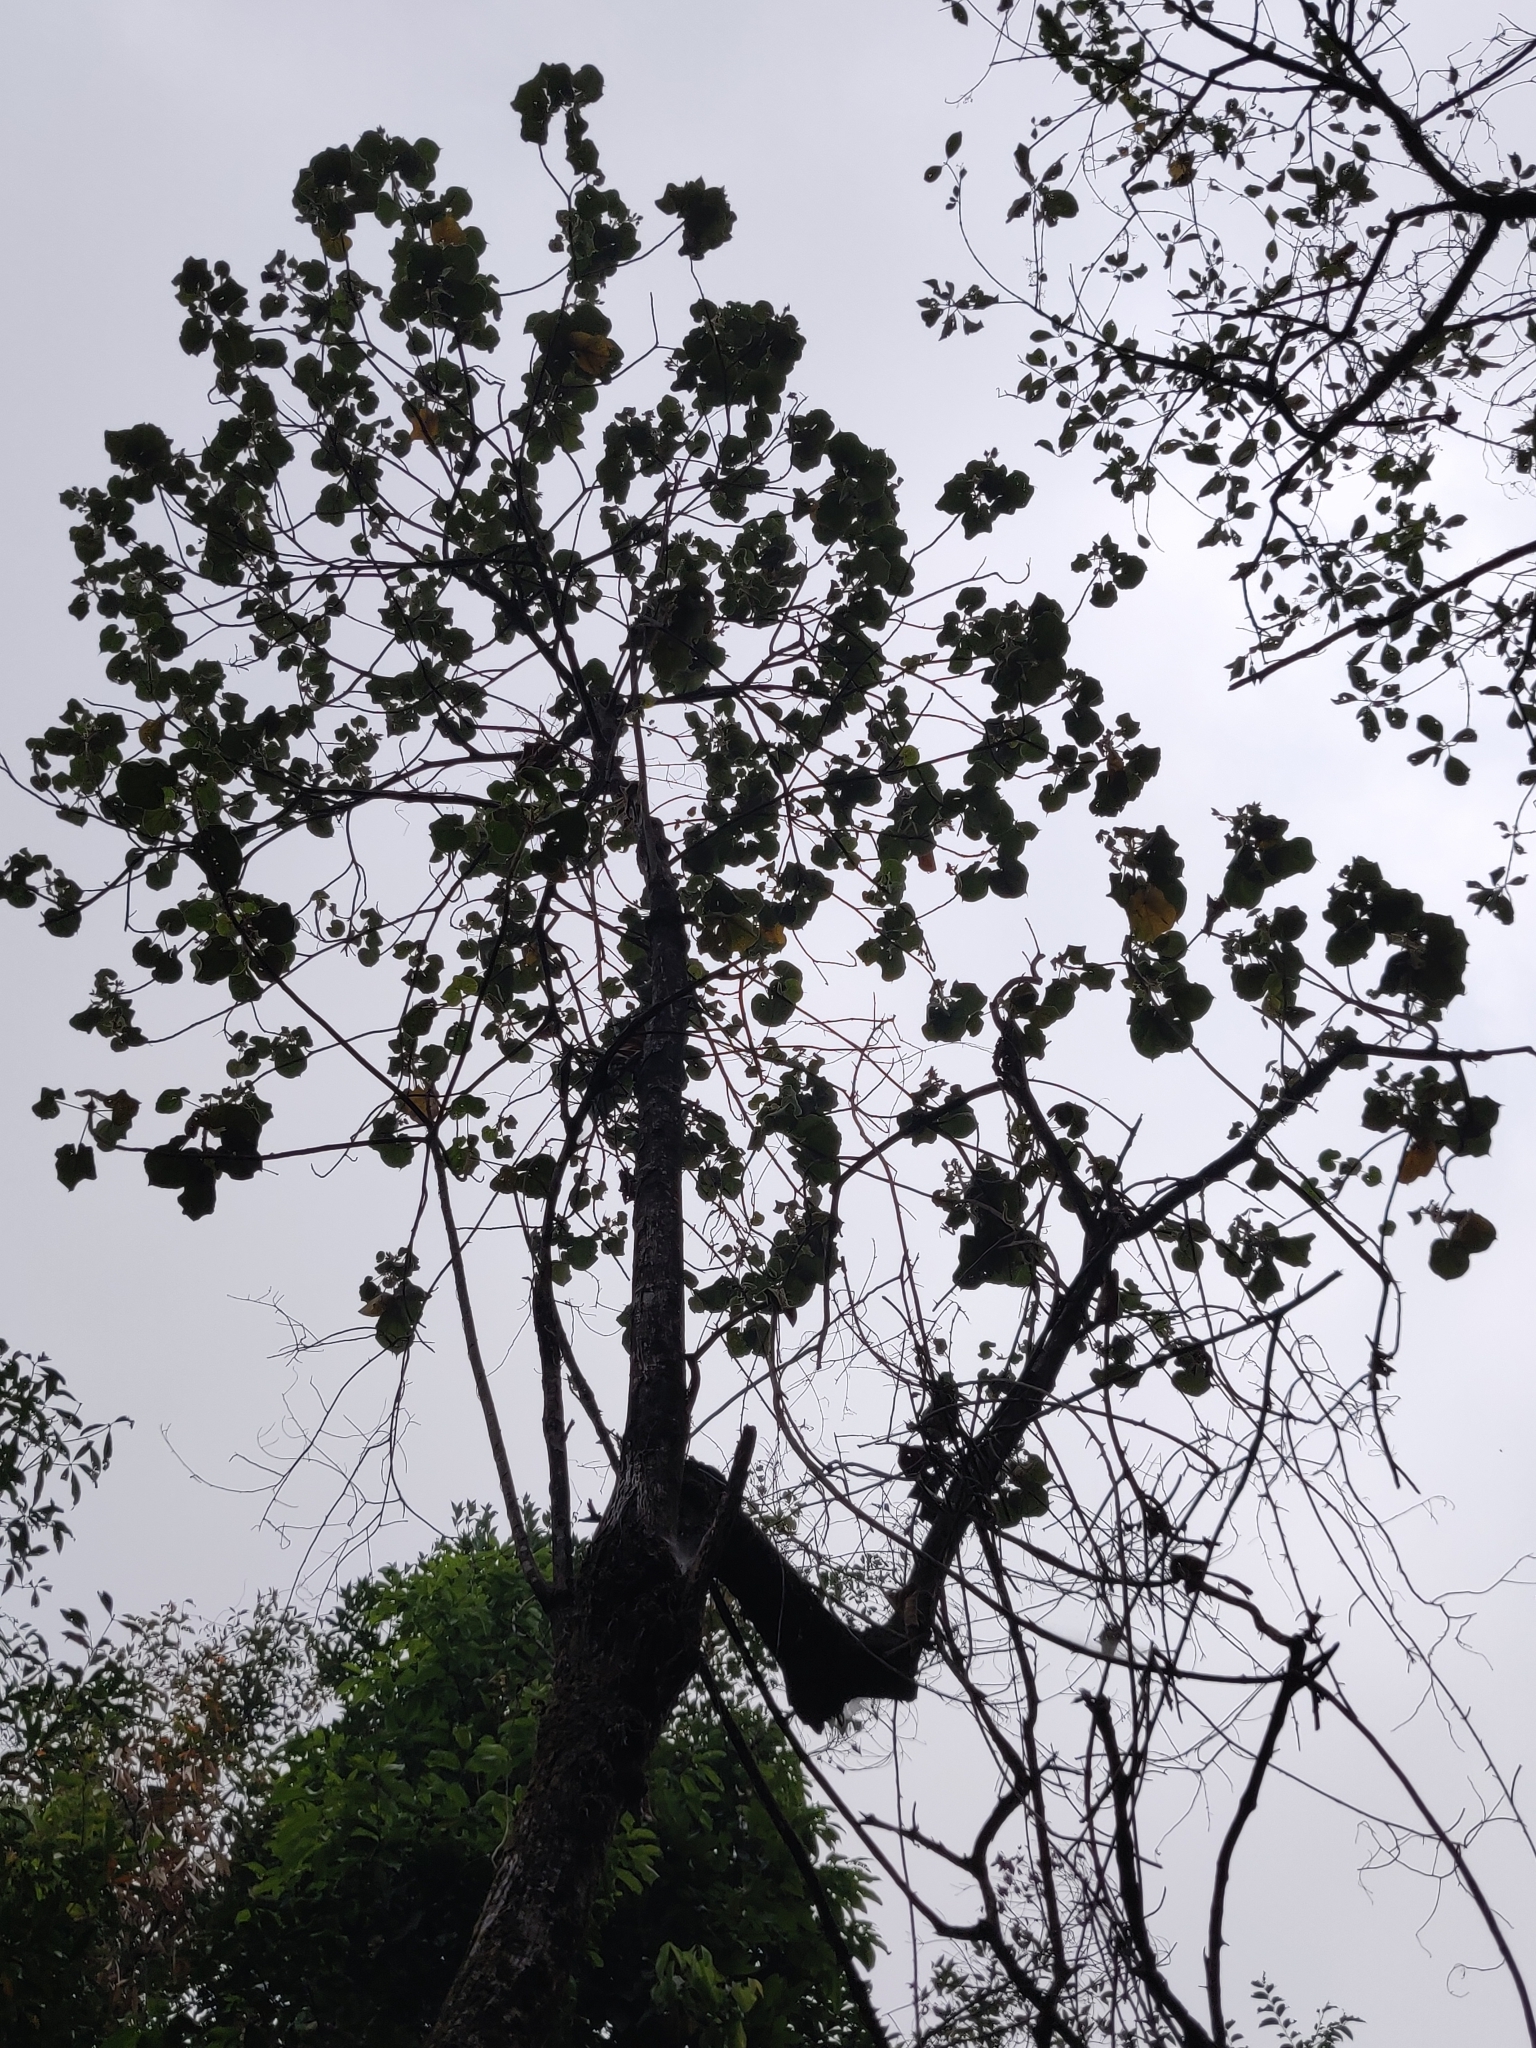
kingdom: Plantae
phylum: Tracheophyta
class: Magnoliopsida
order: Malvales
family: Malvaceae
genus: Talipariti
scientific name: Talipariti tiliaceum
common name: Sea hibiscus
